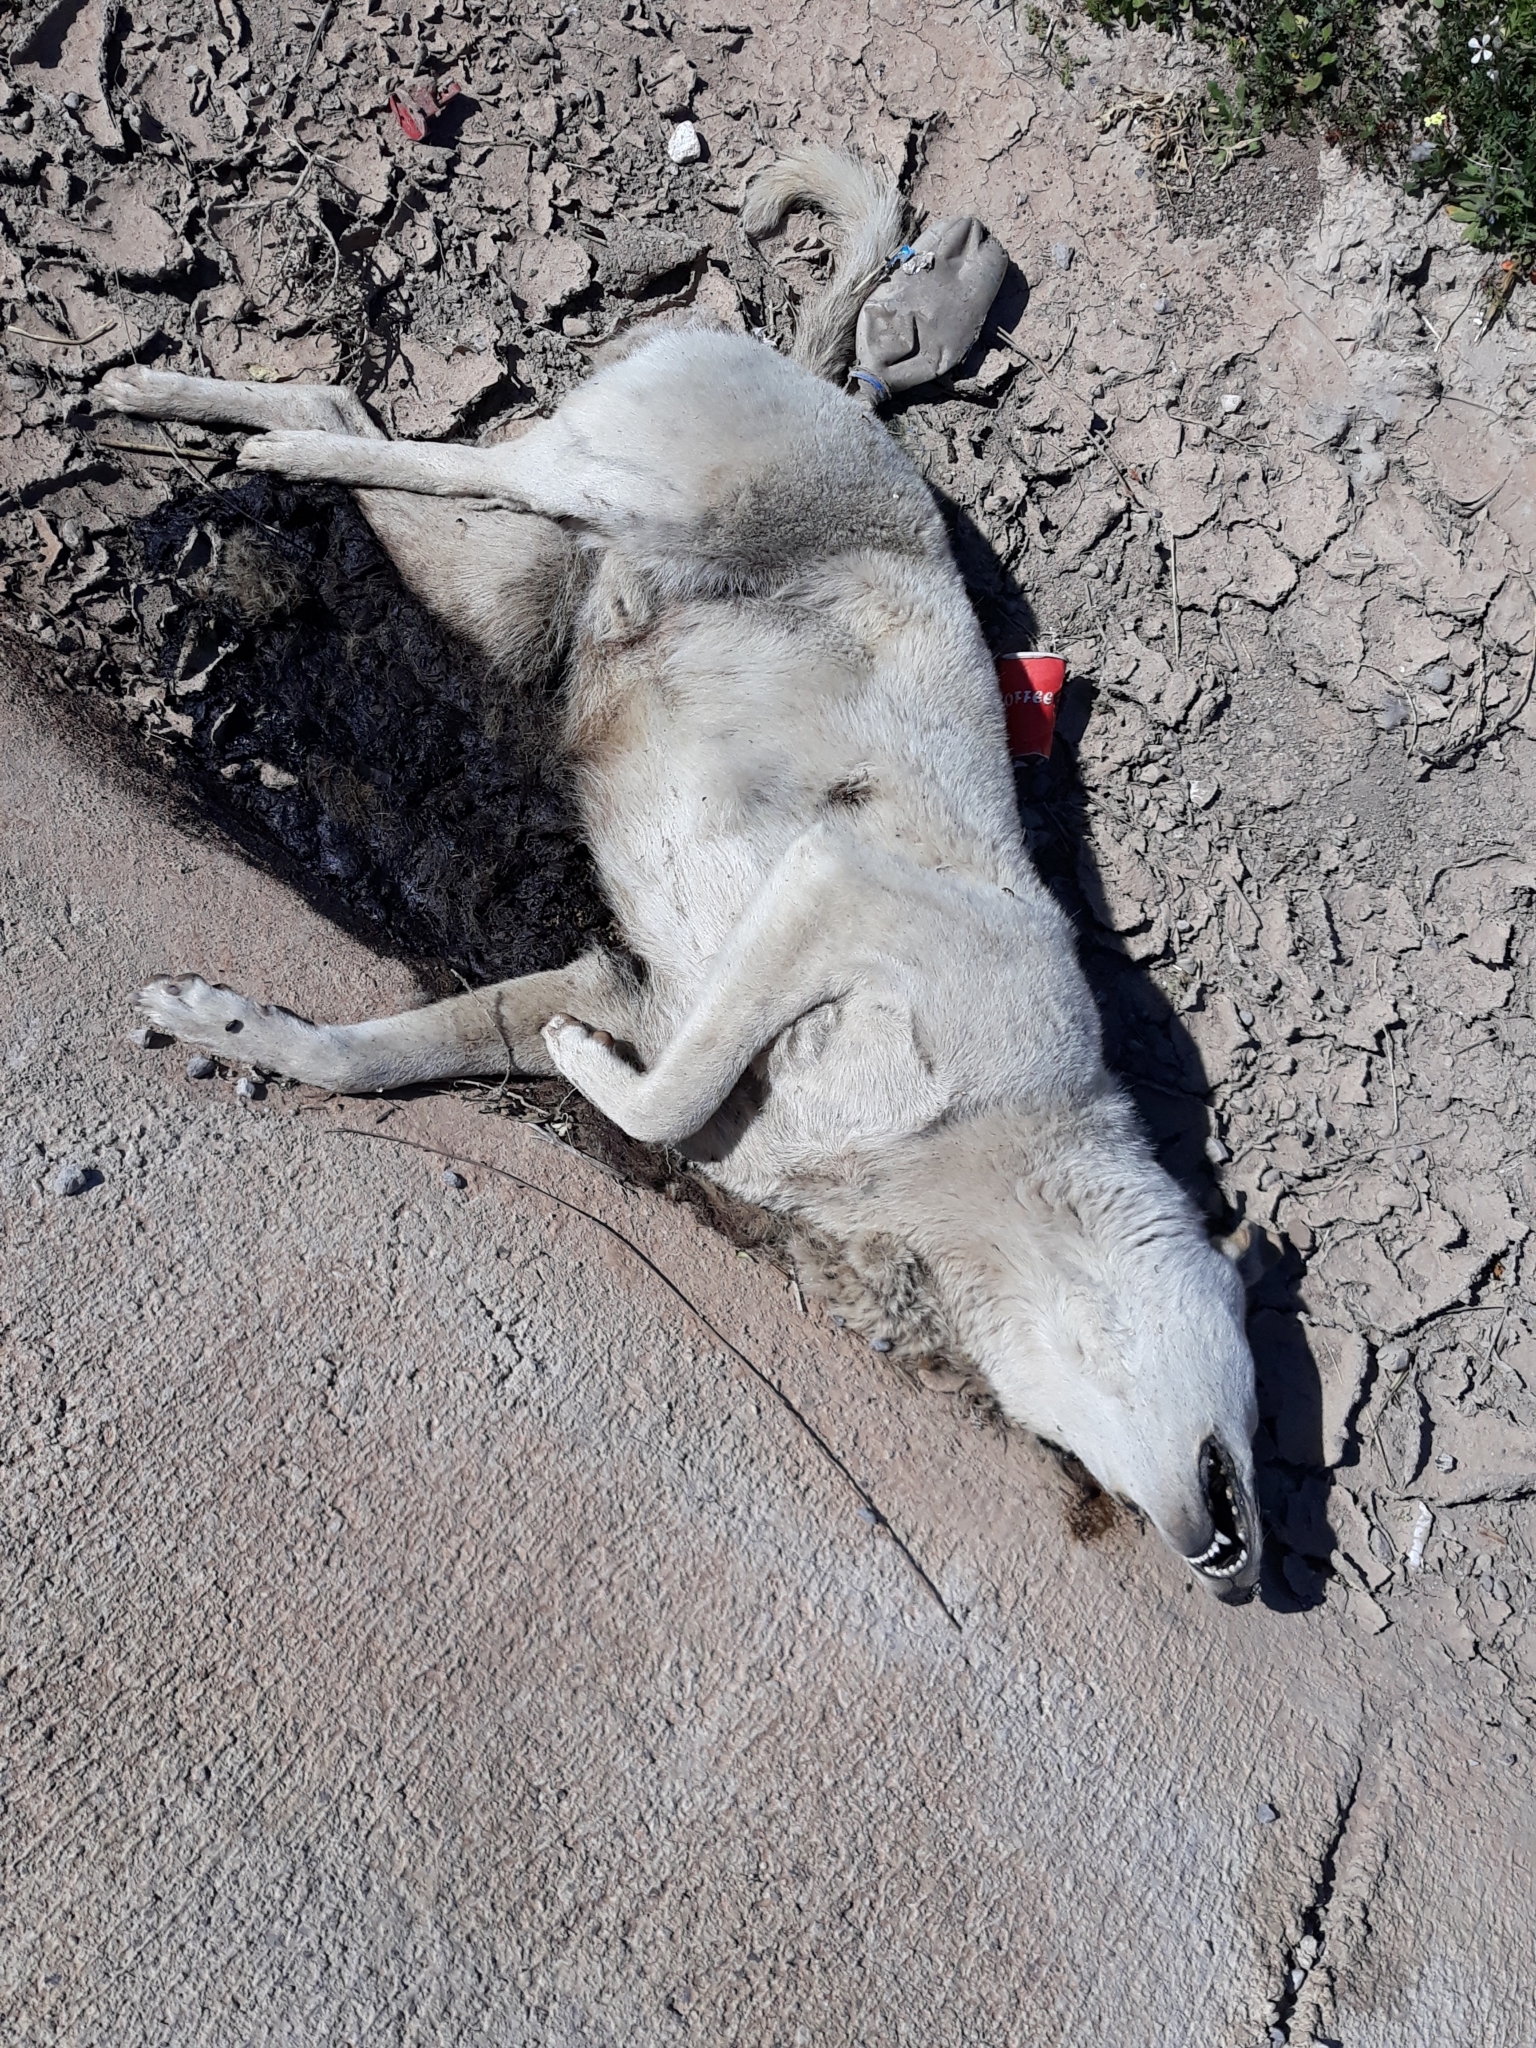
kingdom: Animalia
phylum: Chordata
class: Mammalia
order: Carnivora
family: Canidae
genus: Canis
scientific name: Canis lupus
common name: Gray wolf
